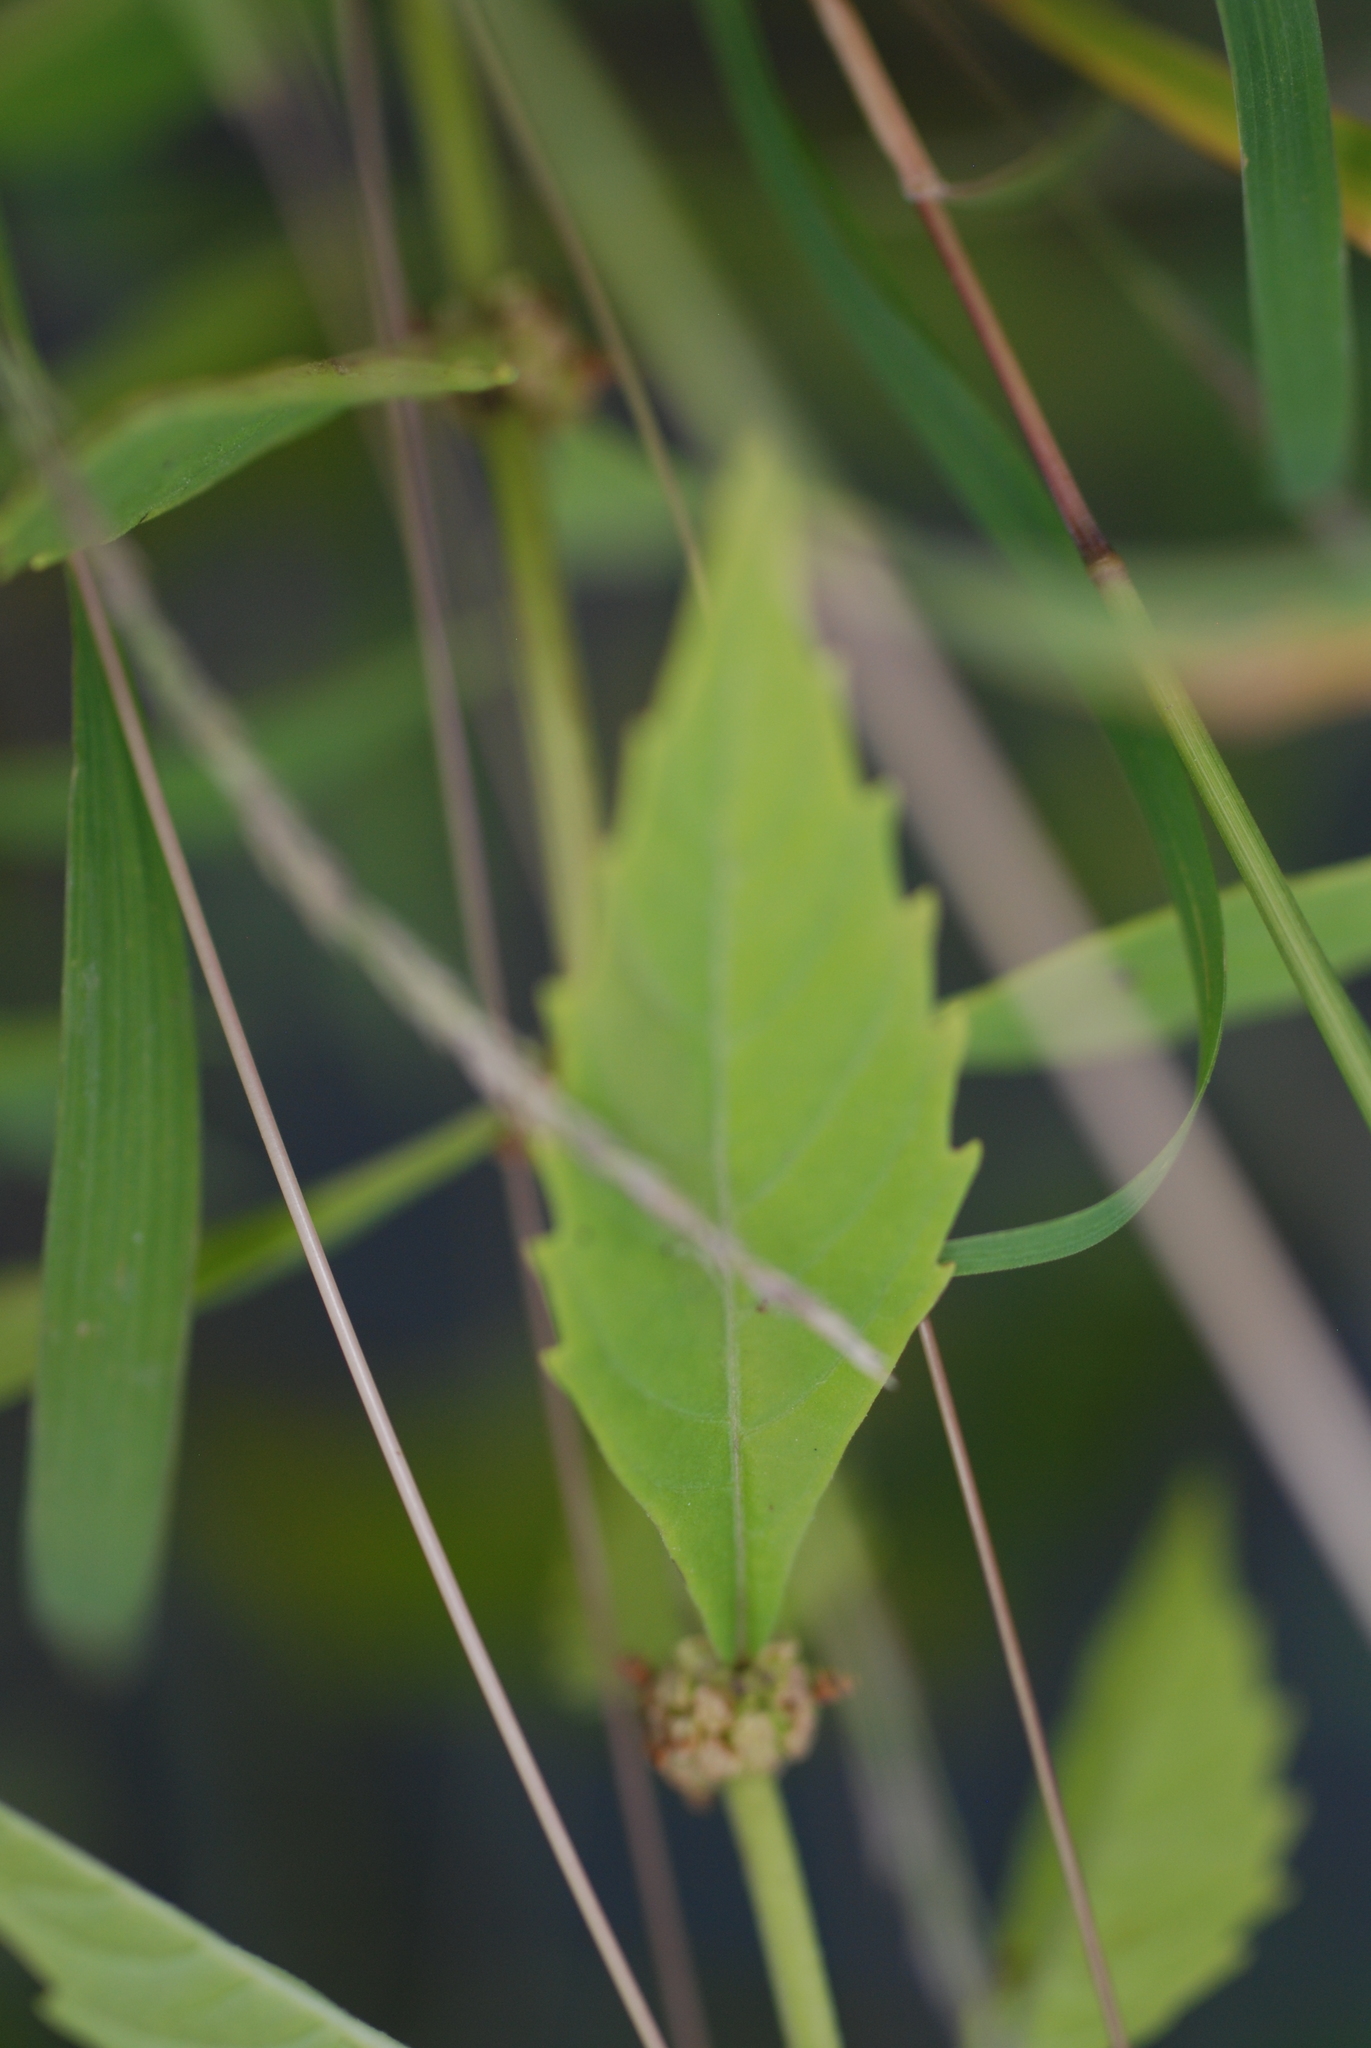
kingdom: Plantae
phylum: Tracheophyta
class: Magnoliopsida
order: Lamiales
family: Lamiaceae
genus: Lycopus
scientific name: Lycopus uniflorus
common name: Northern bugleweed
